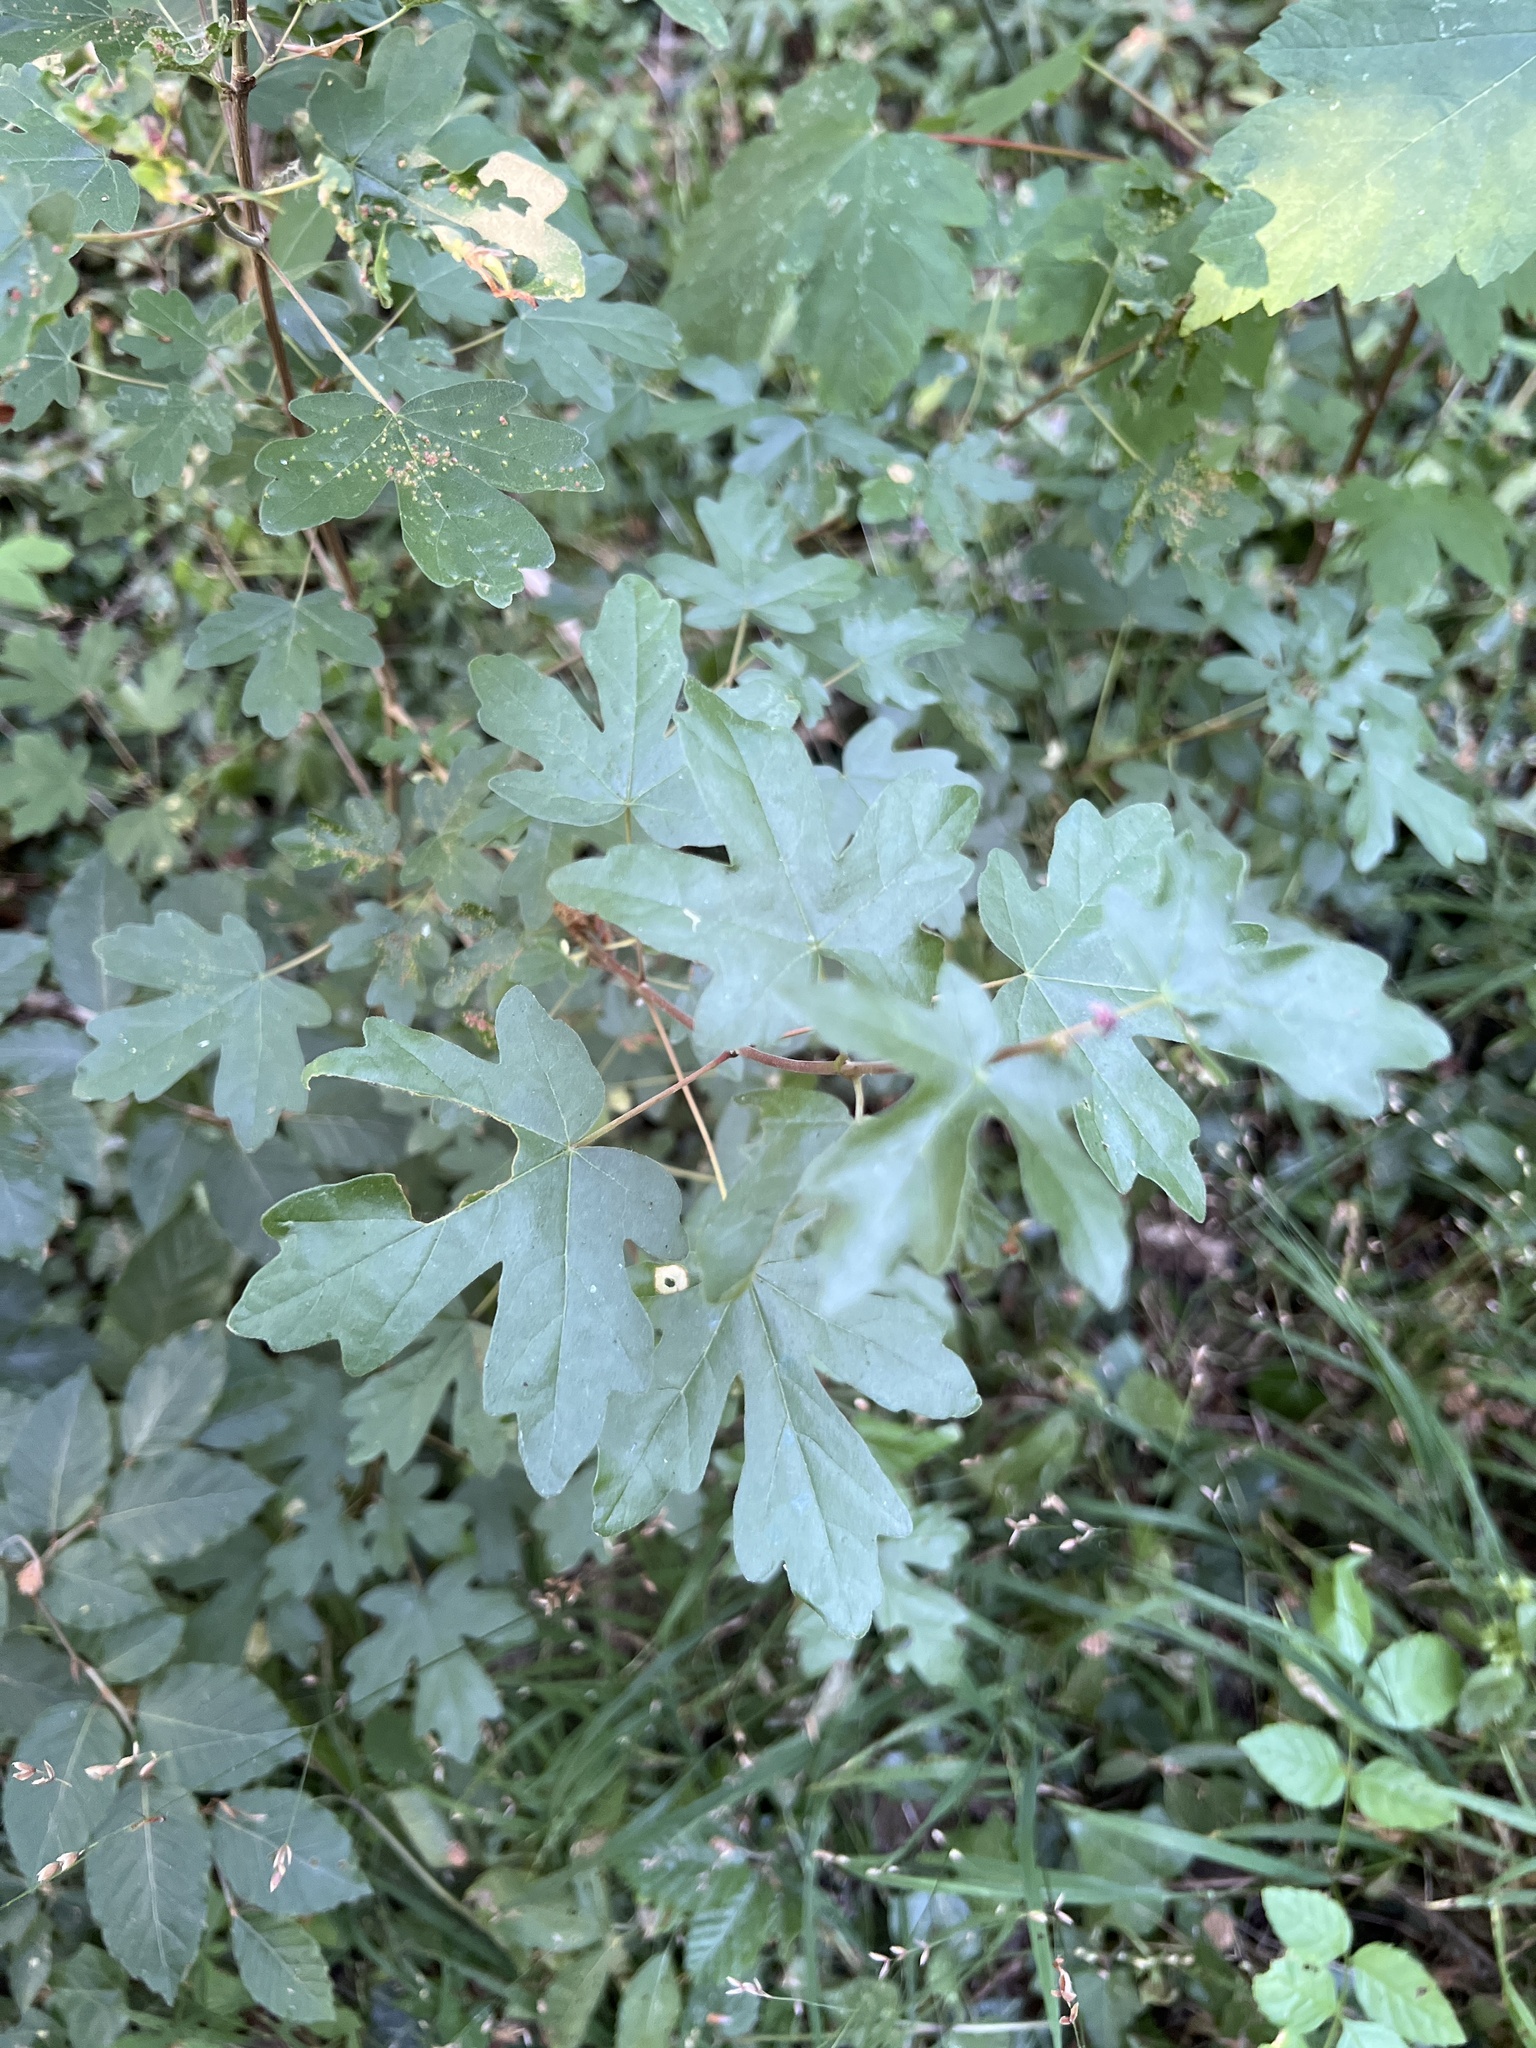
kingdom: Plantae
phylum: Tracheophyta
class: Magnoliopsida
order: Sapindales
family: Sapindaceae
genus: Acer
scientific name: Acer campestre
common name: Field maple
